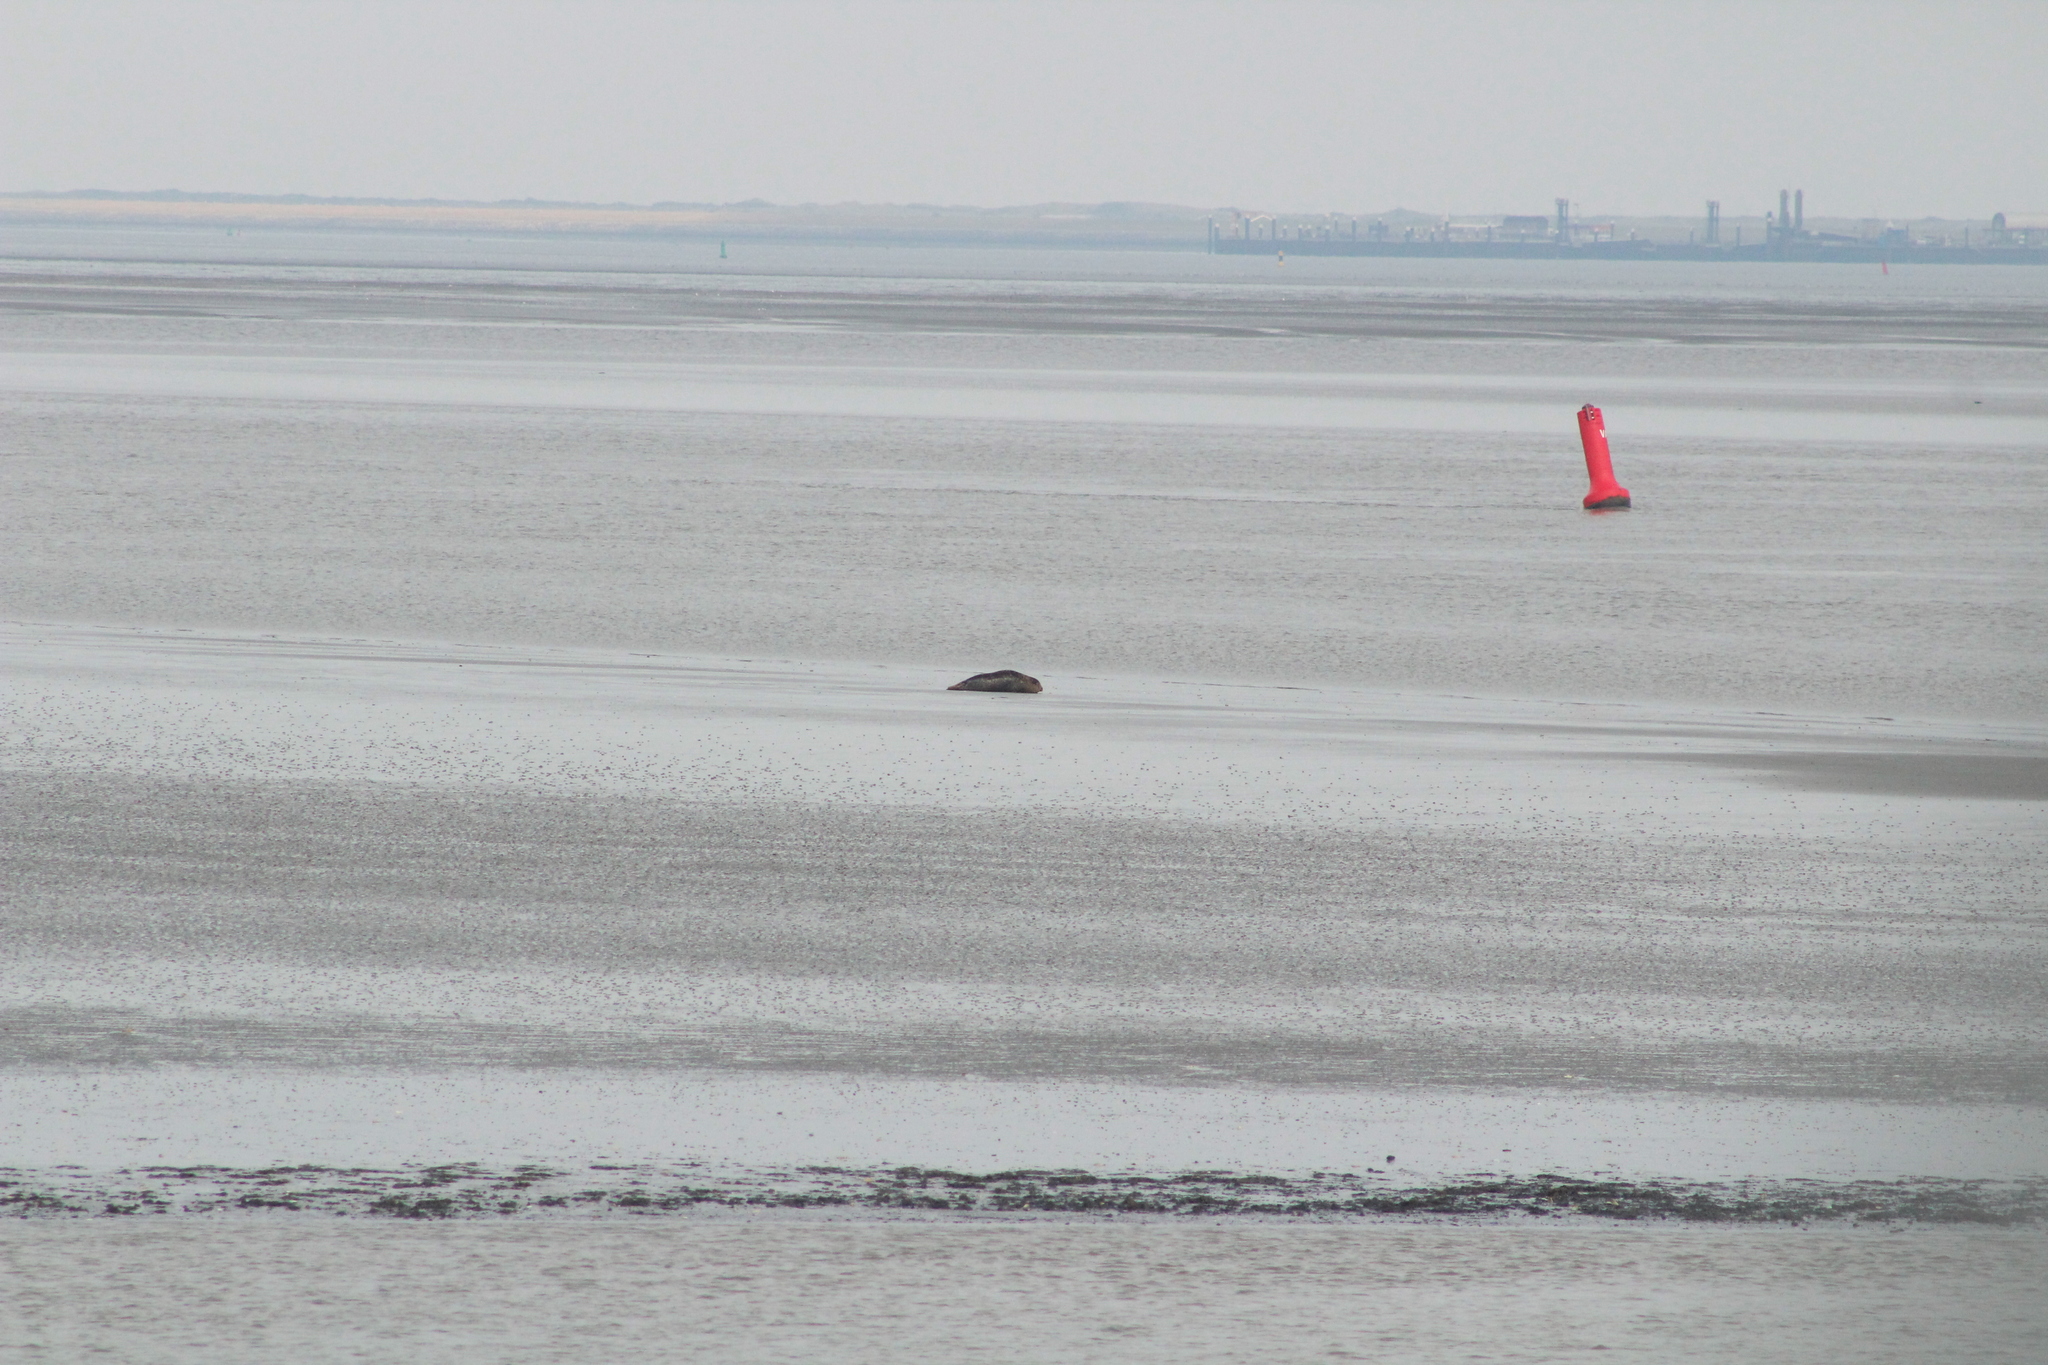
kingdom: Animalia
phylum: Chordata
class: Mammalia
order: Carnivora
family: Phocidae
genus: Phoca
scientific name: Phoca vitulina
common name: Harbor seal
